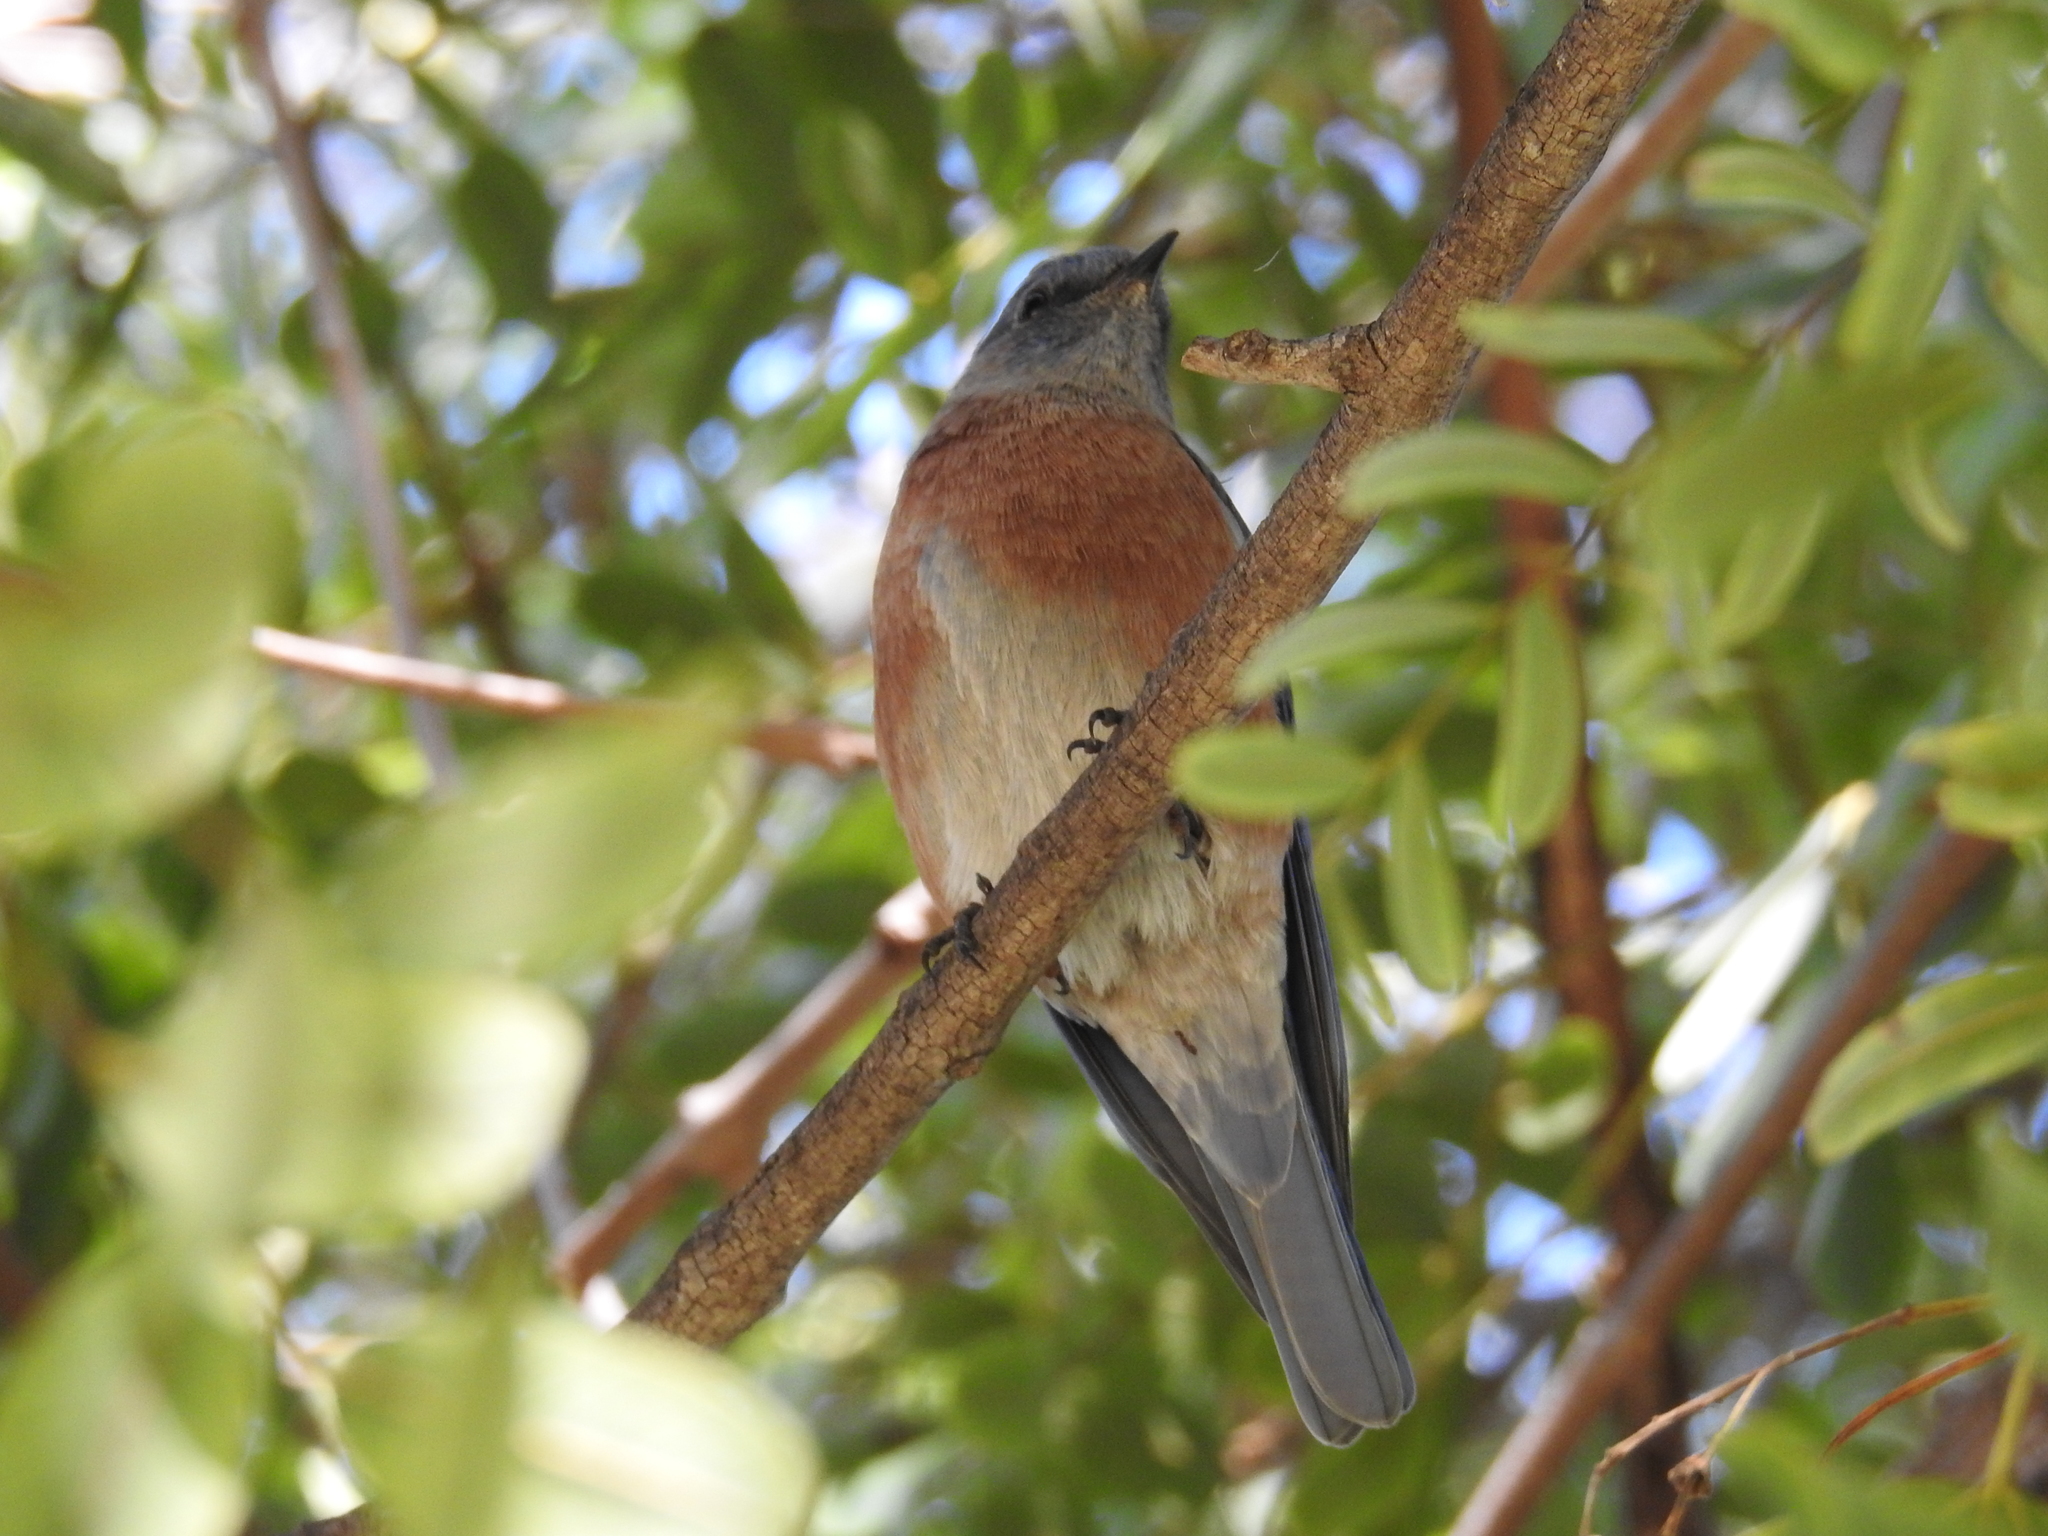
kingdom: Animalia
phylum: Chordata
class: Aves
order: Passeriformes
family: Turdidae
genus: Sialia
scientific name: Sialia mexicana
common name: Western bluebird
